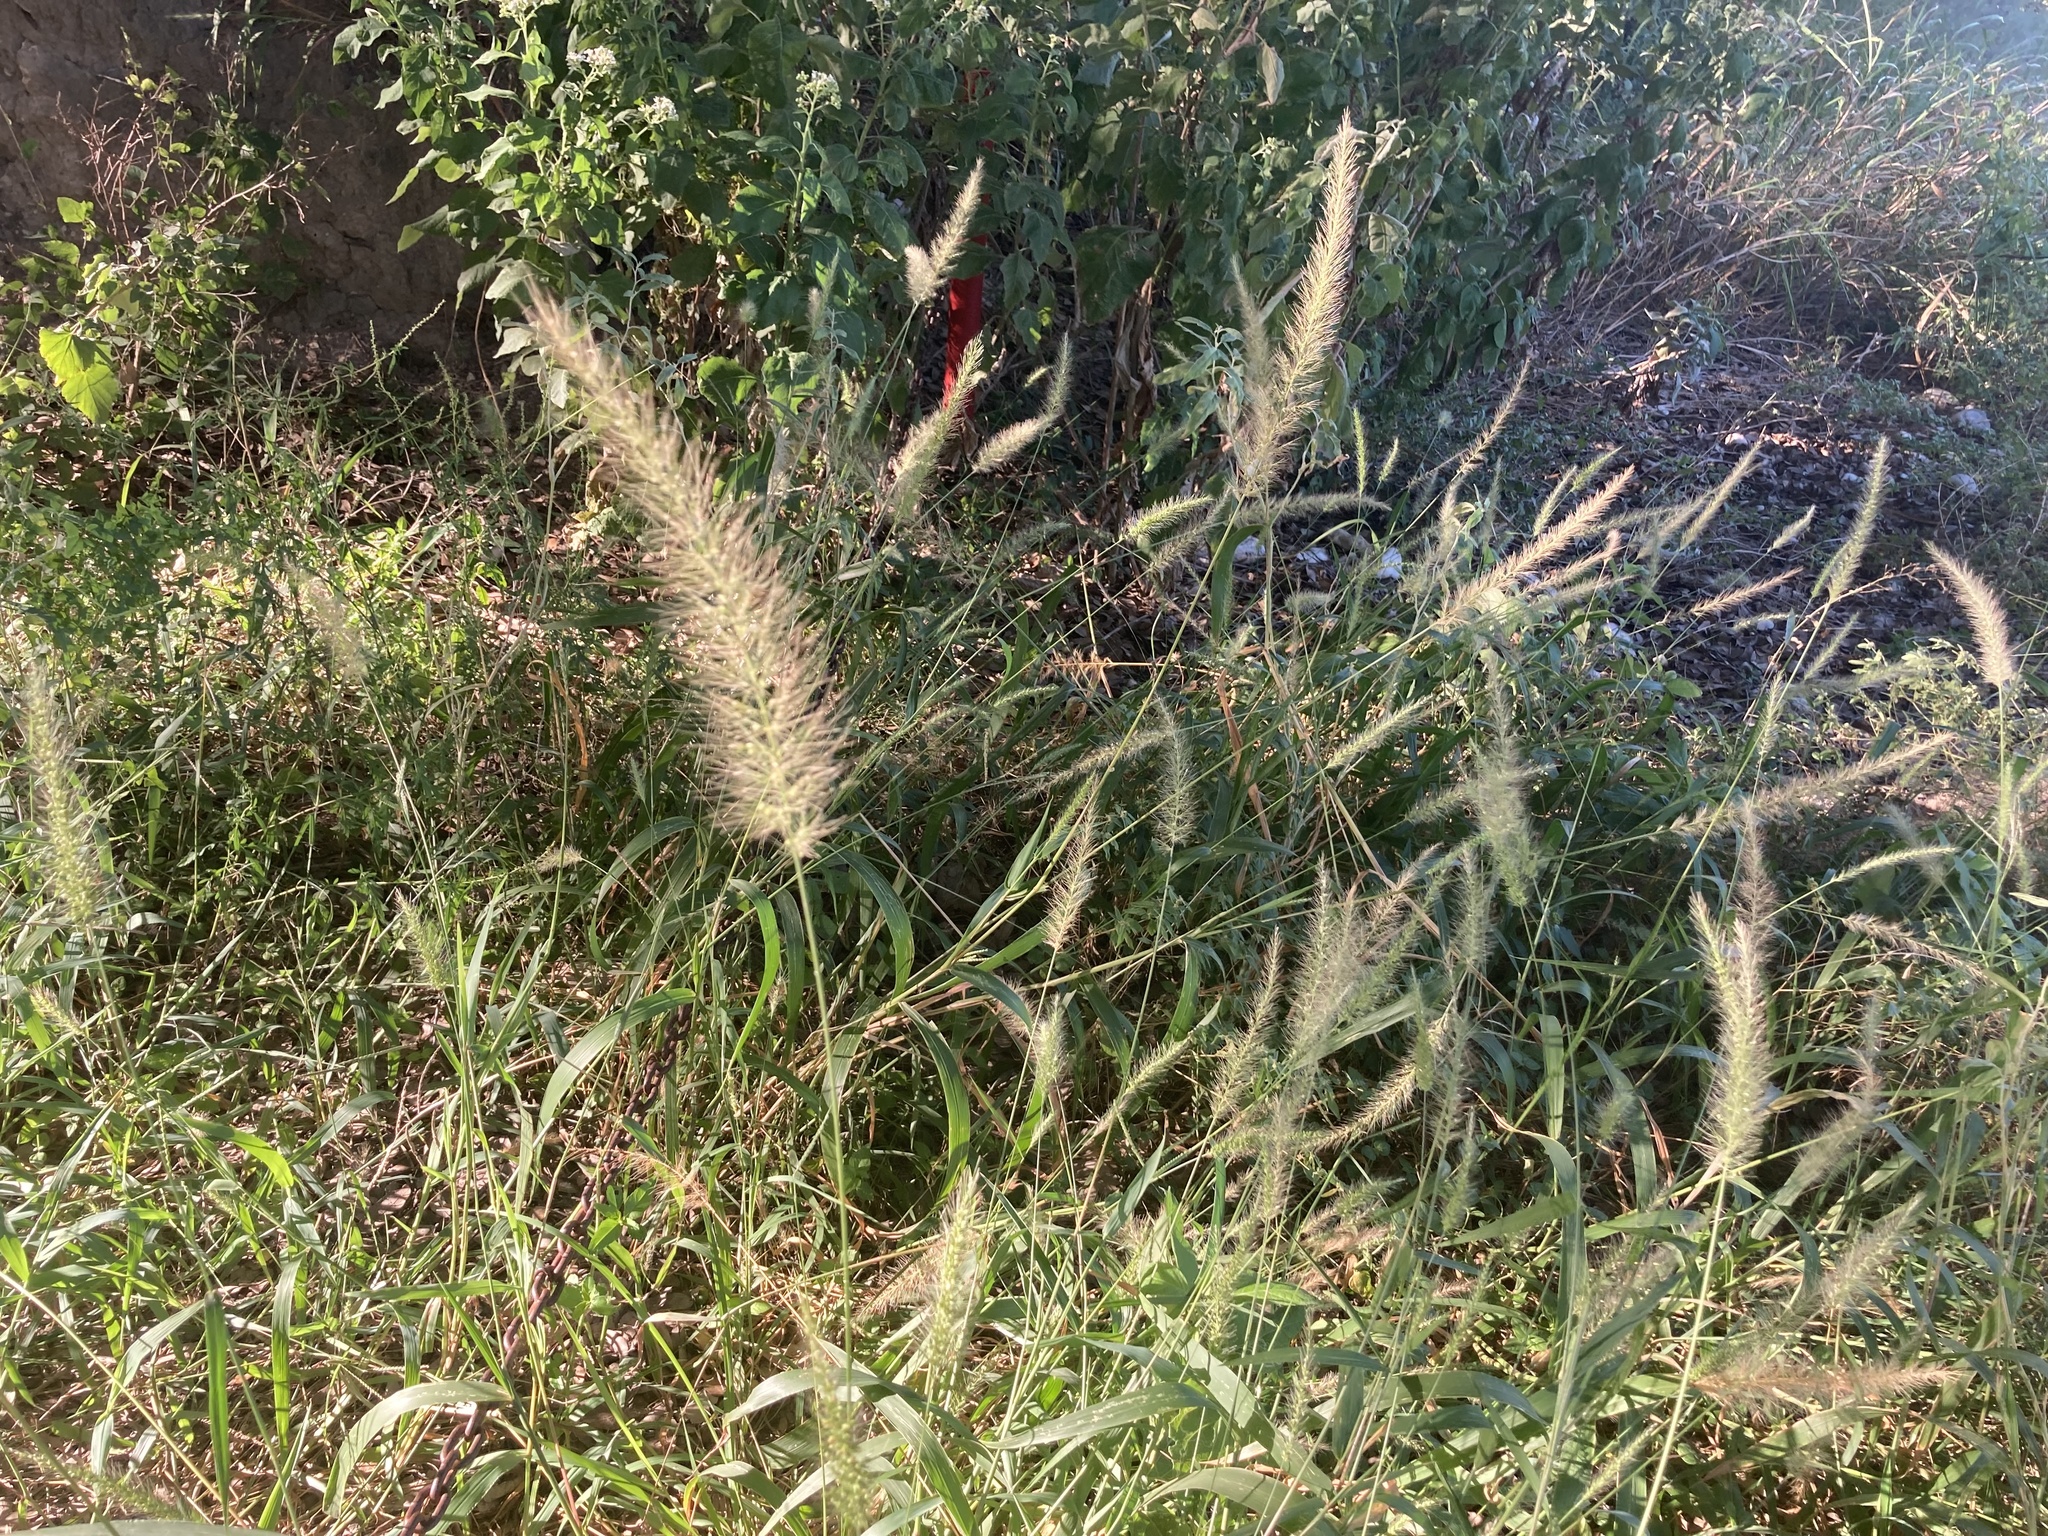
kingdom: Plantae
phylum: Tracheophyta
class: Liliopsida
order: Poales
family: Poaceae
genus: Setaria
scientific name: Setaria scheelei
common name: Southwestern bristle grass
